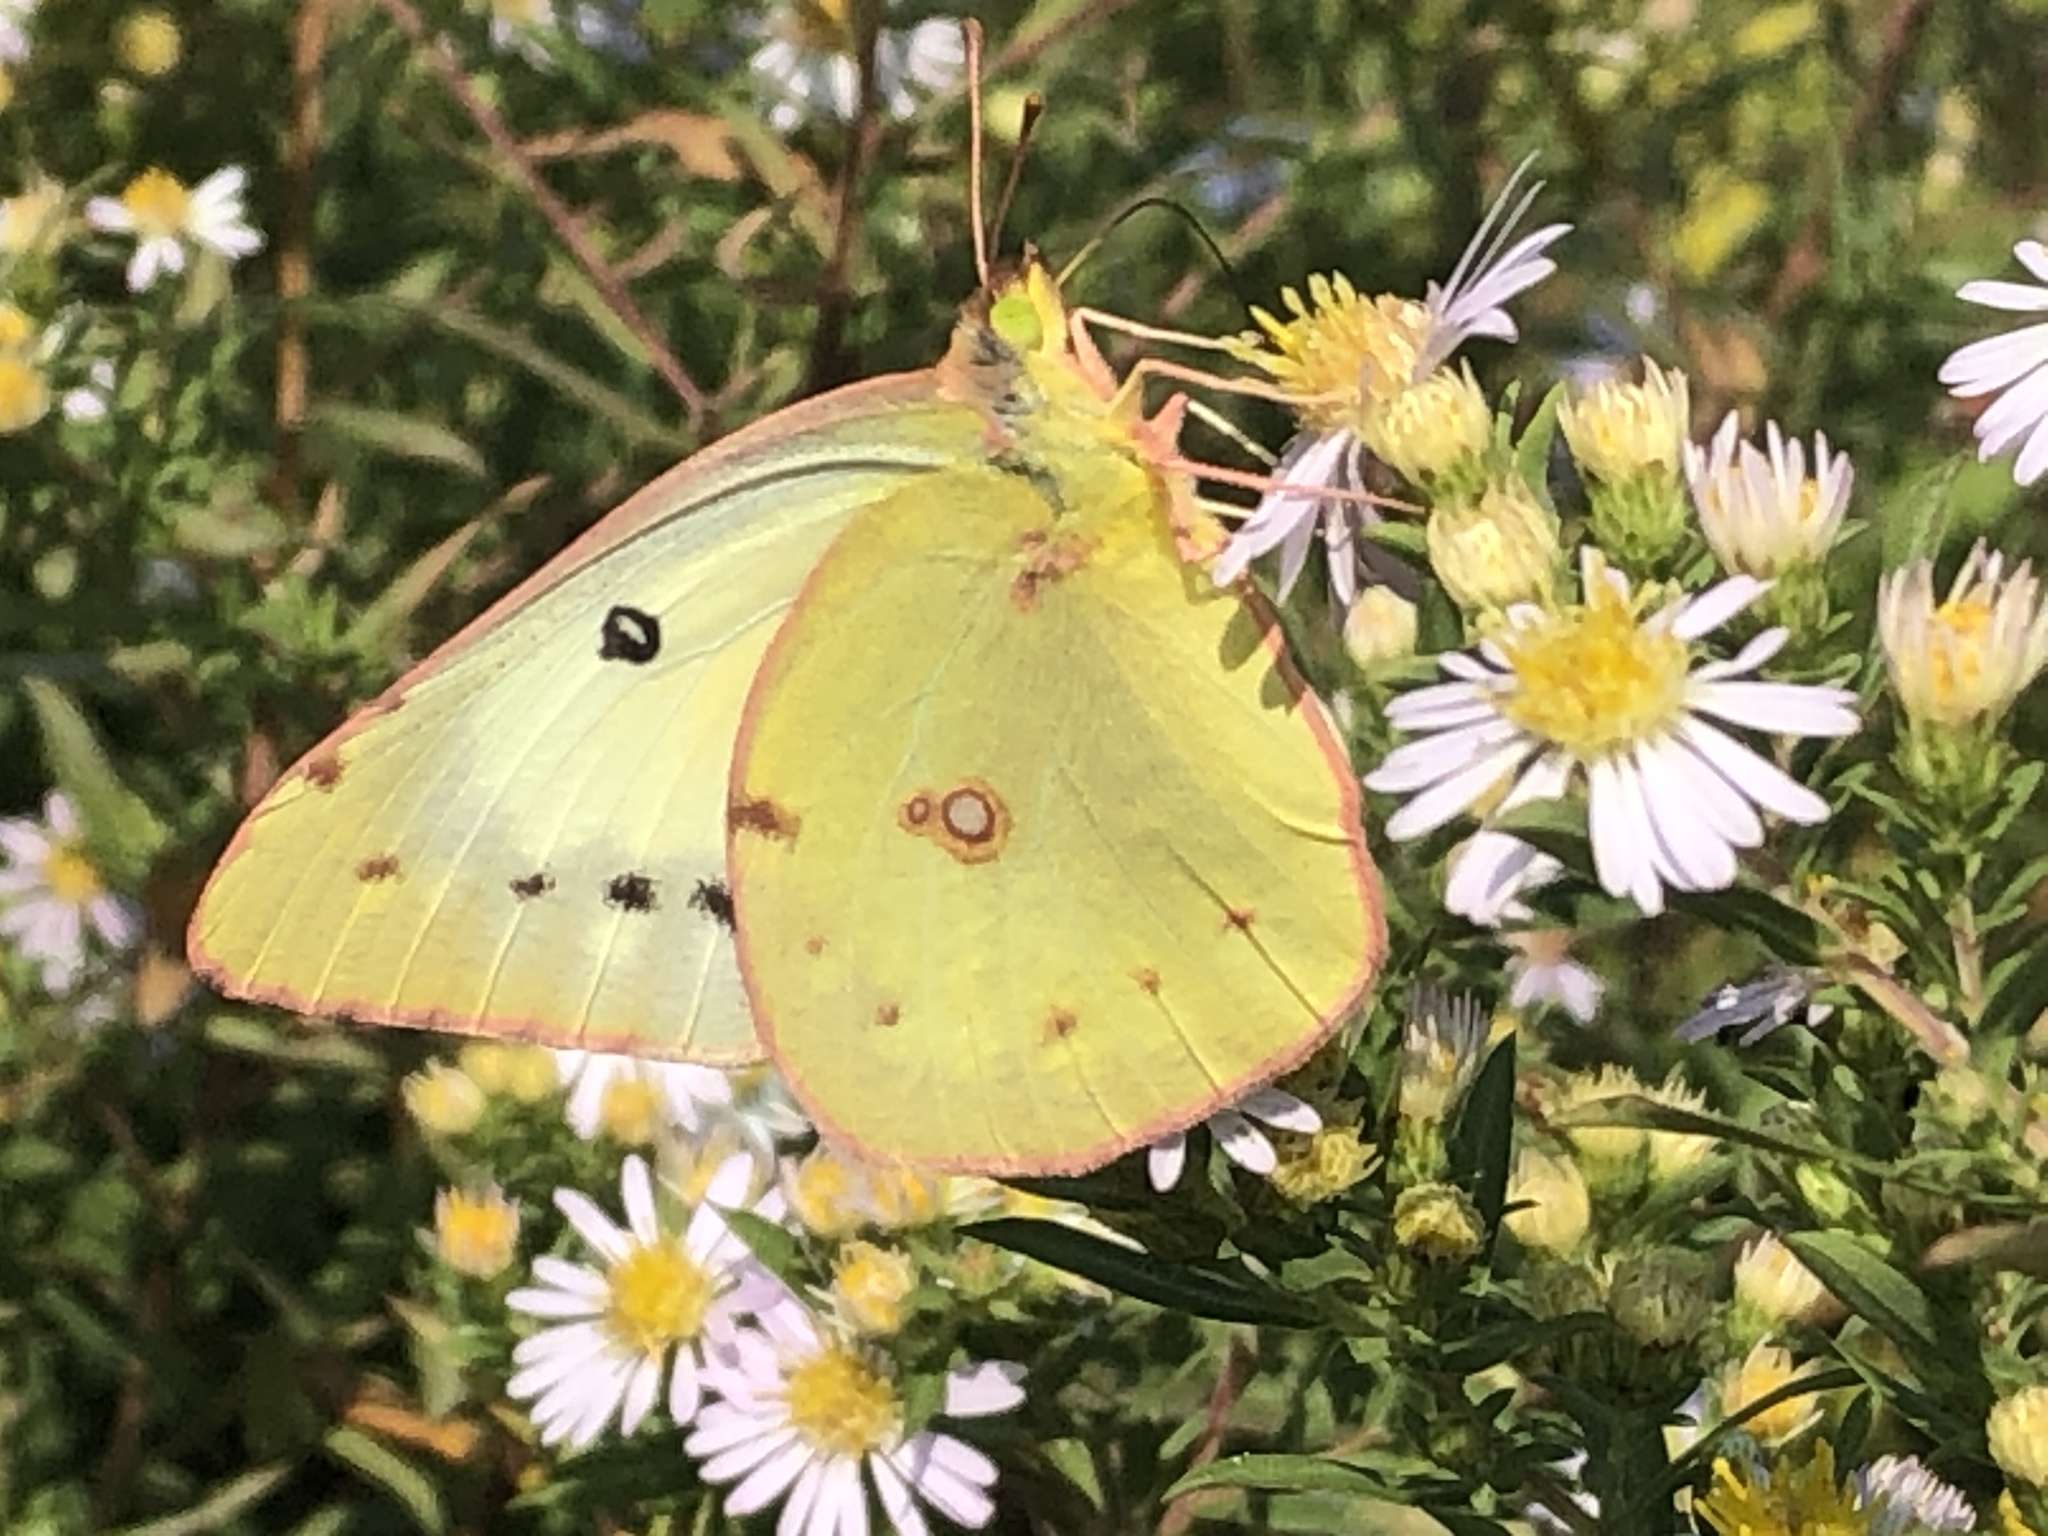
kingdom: Animalia
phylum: Arthropoda
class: Insecta
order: Lepidoptera
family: Pieridae
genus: Colias
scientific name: Colias philodice
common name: Clouded sulphur
